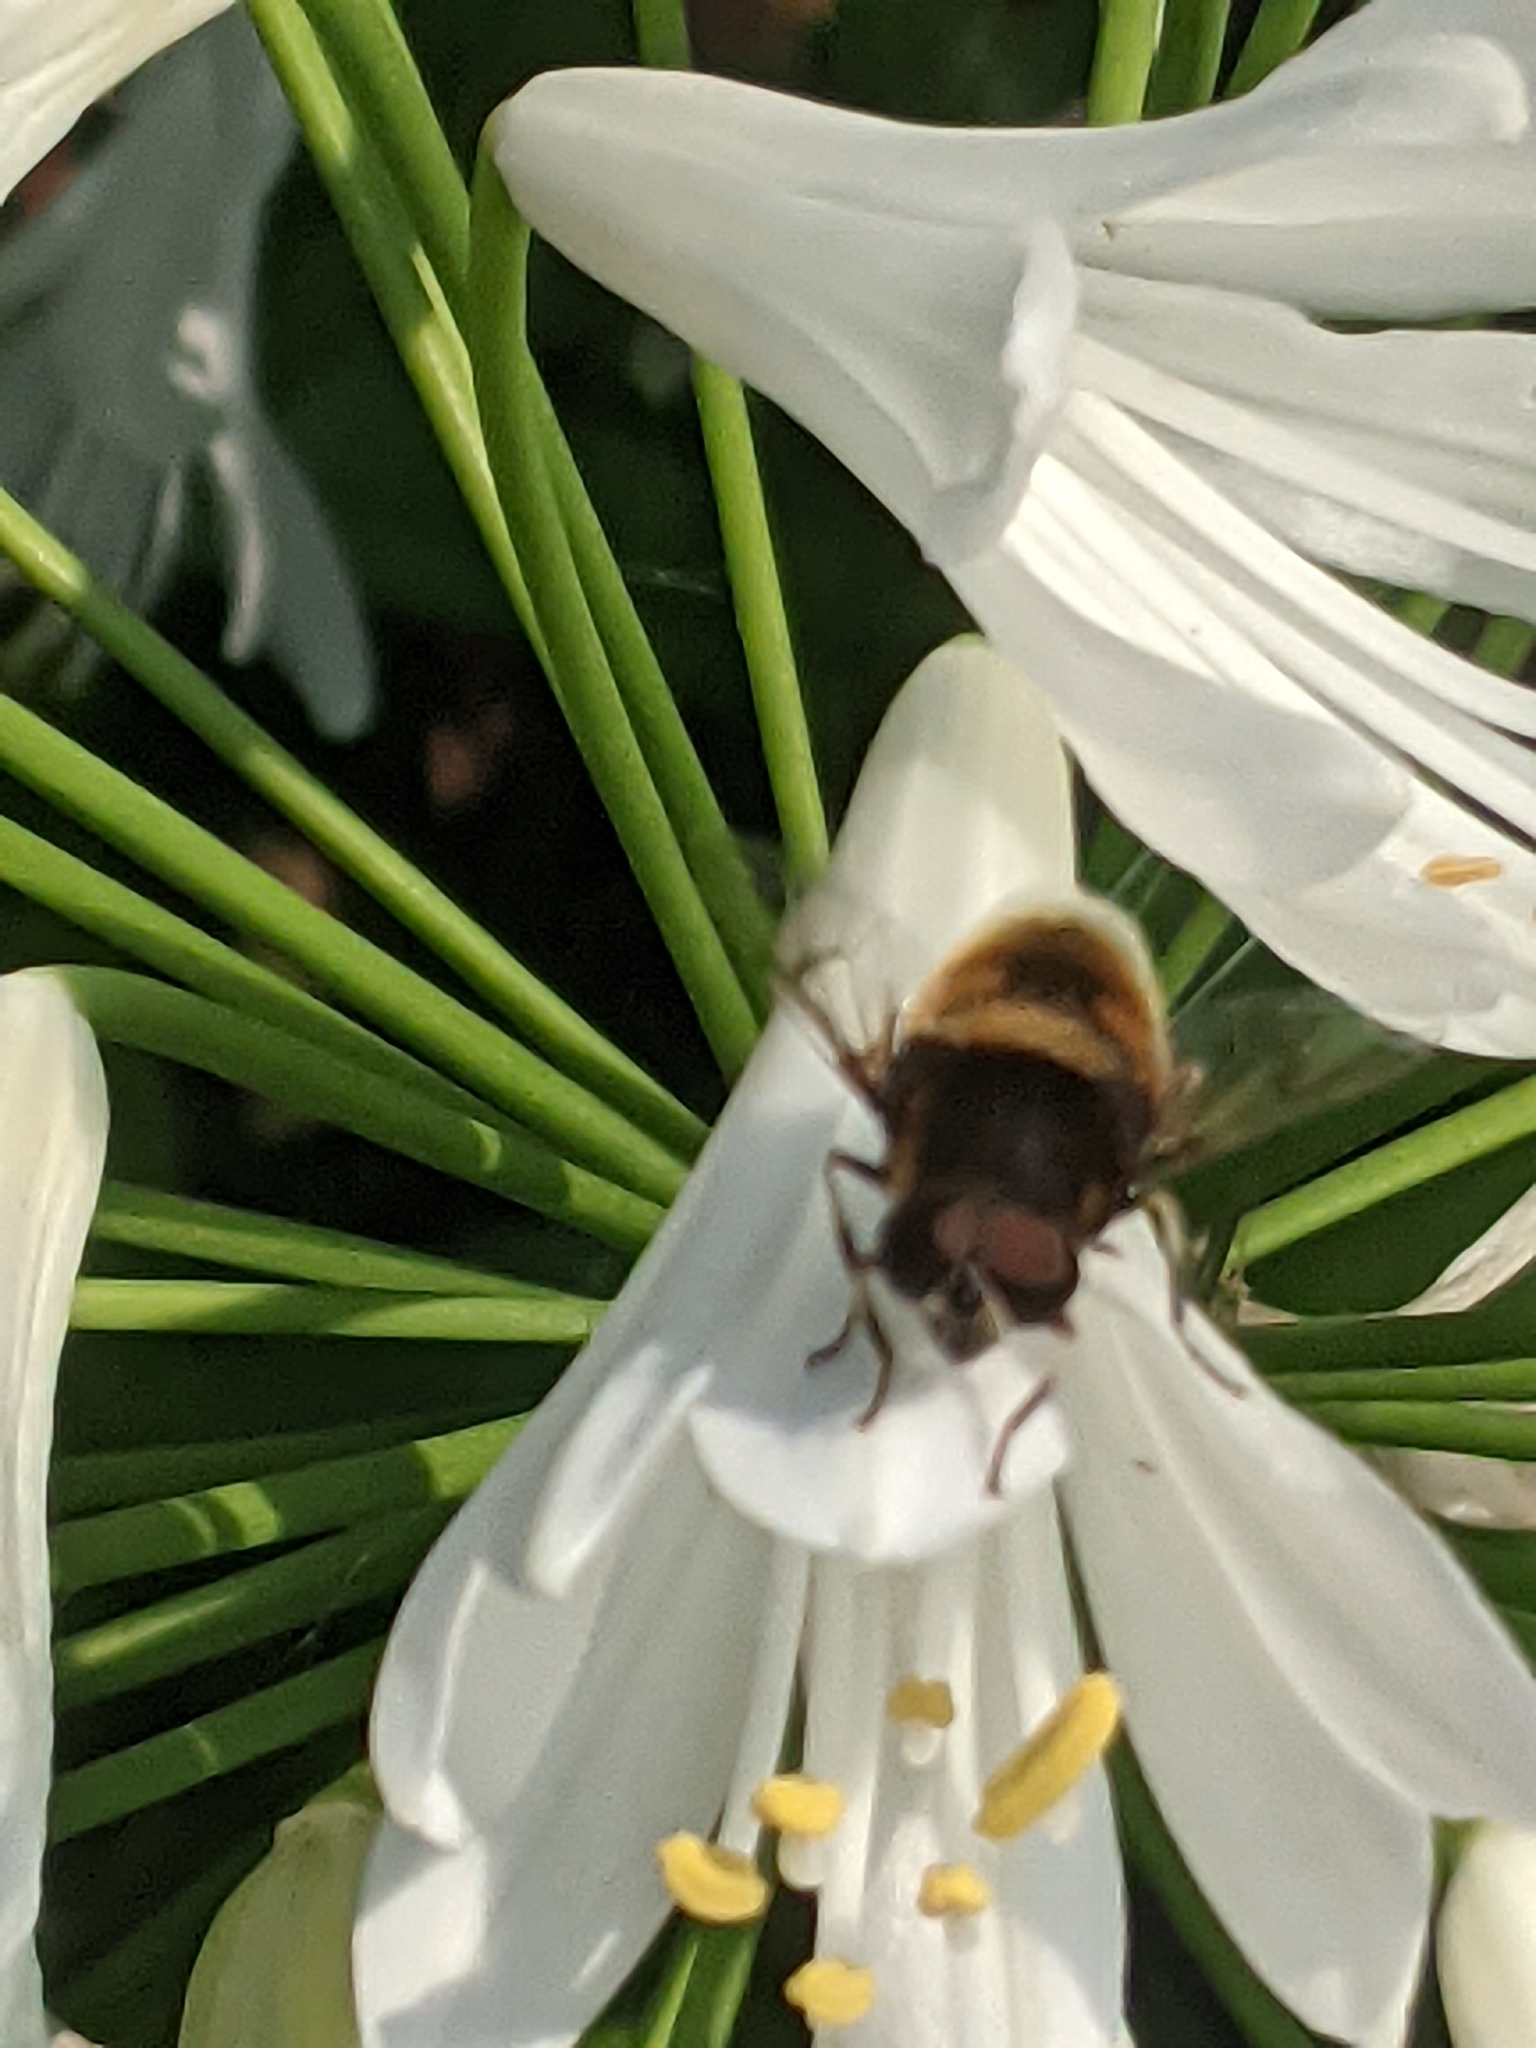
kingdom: Animalia
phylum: Arthropoda
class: Insecta
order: Diptera
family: Syrphidae
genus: Eristalis
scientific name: Eristalis intricaria
